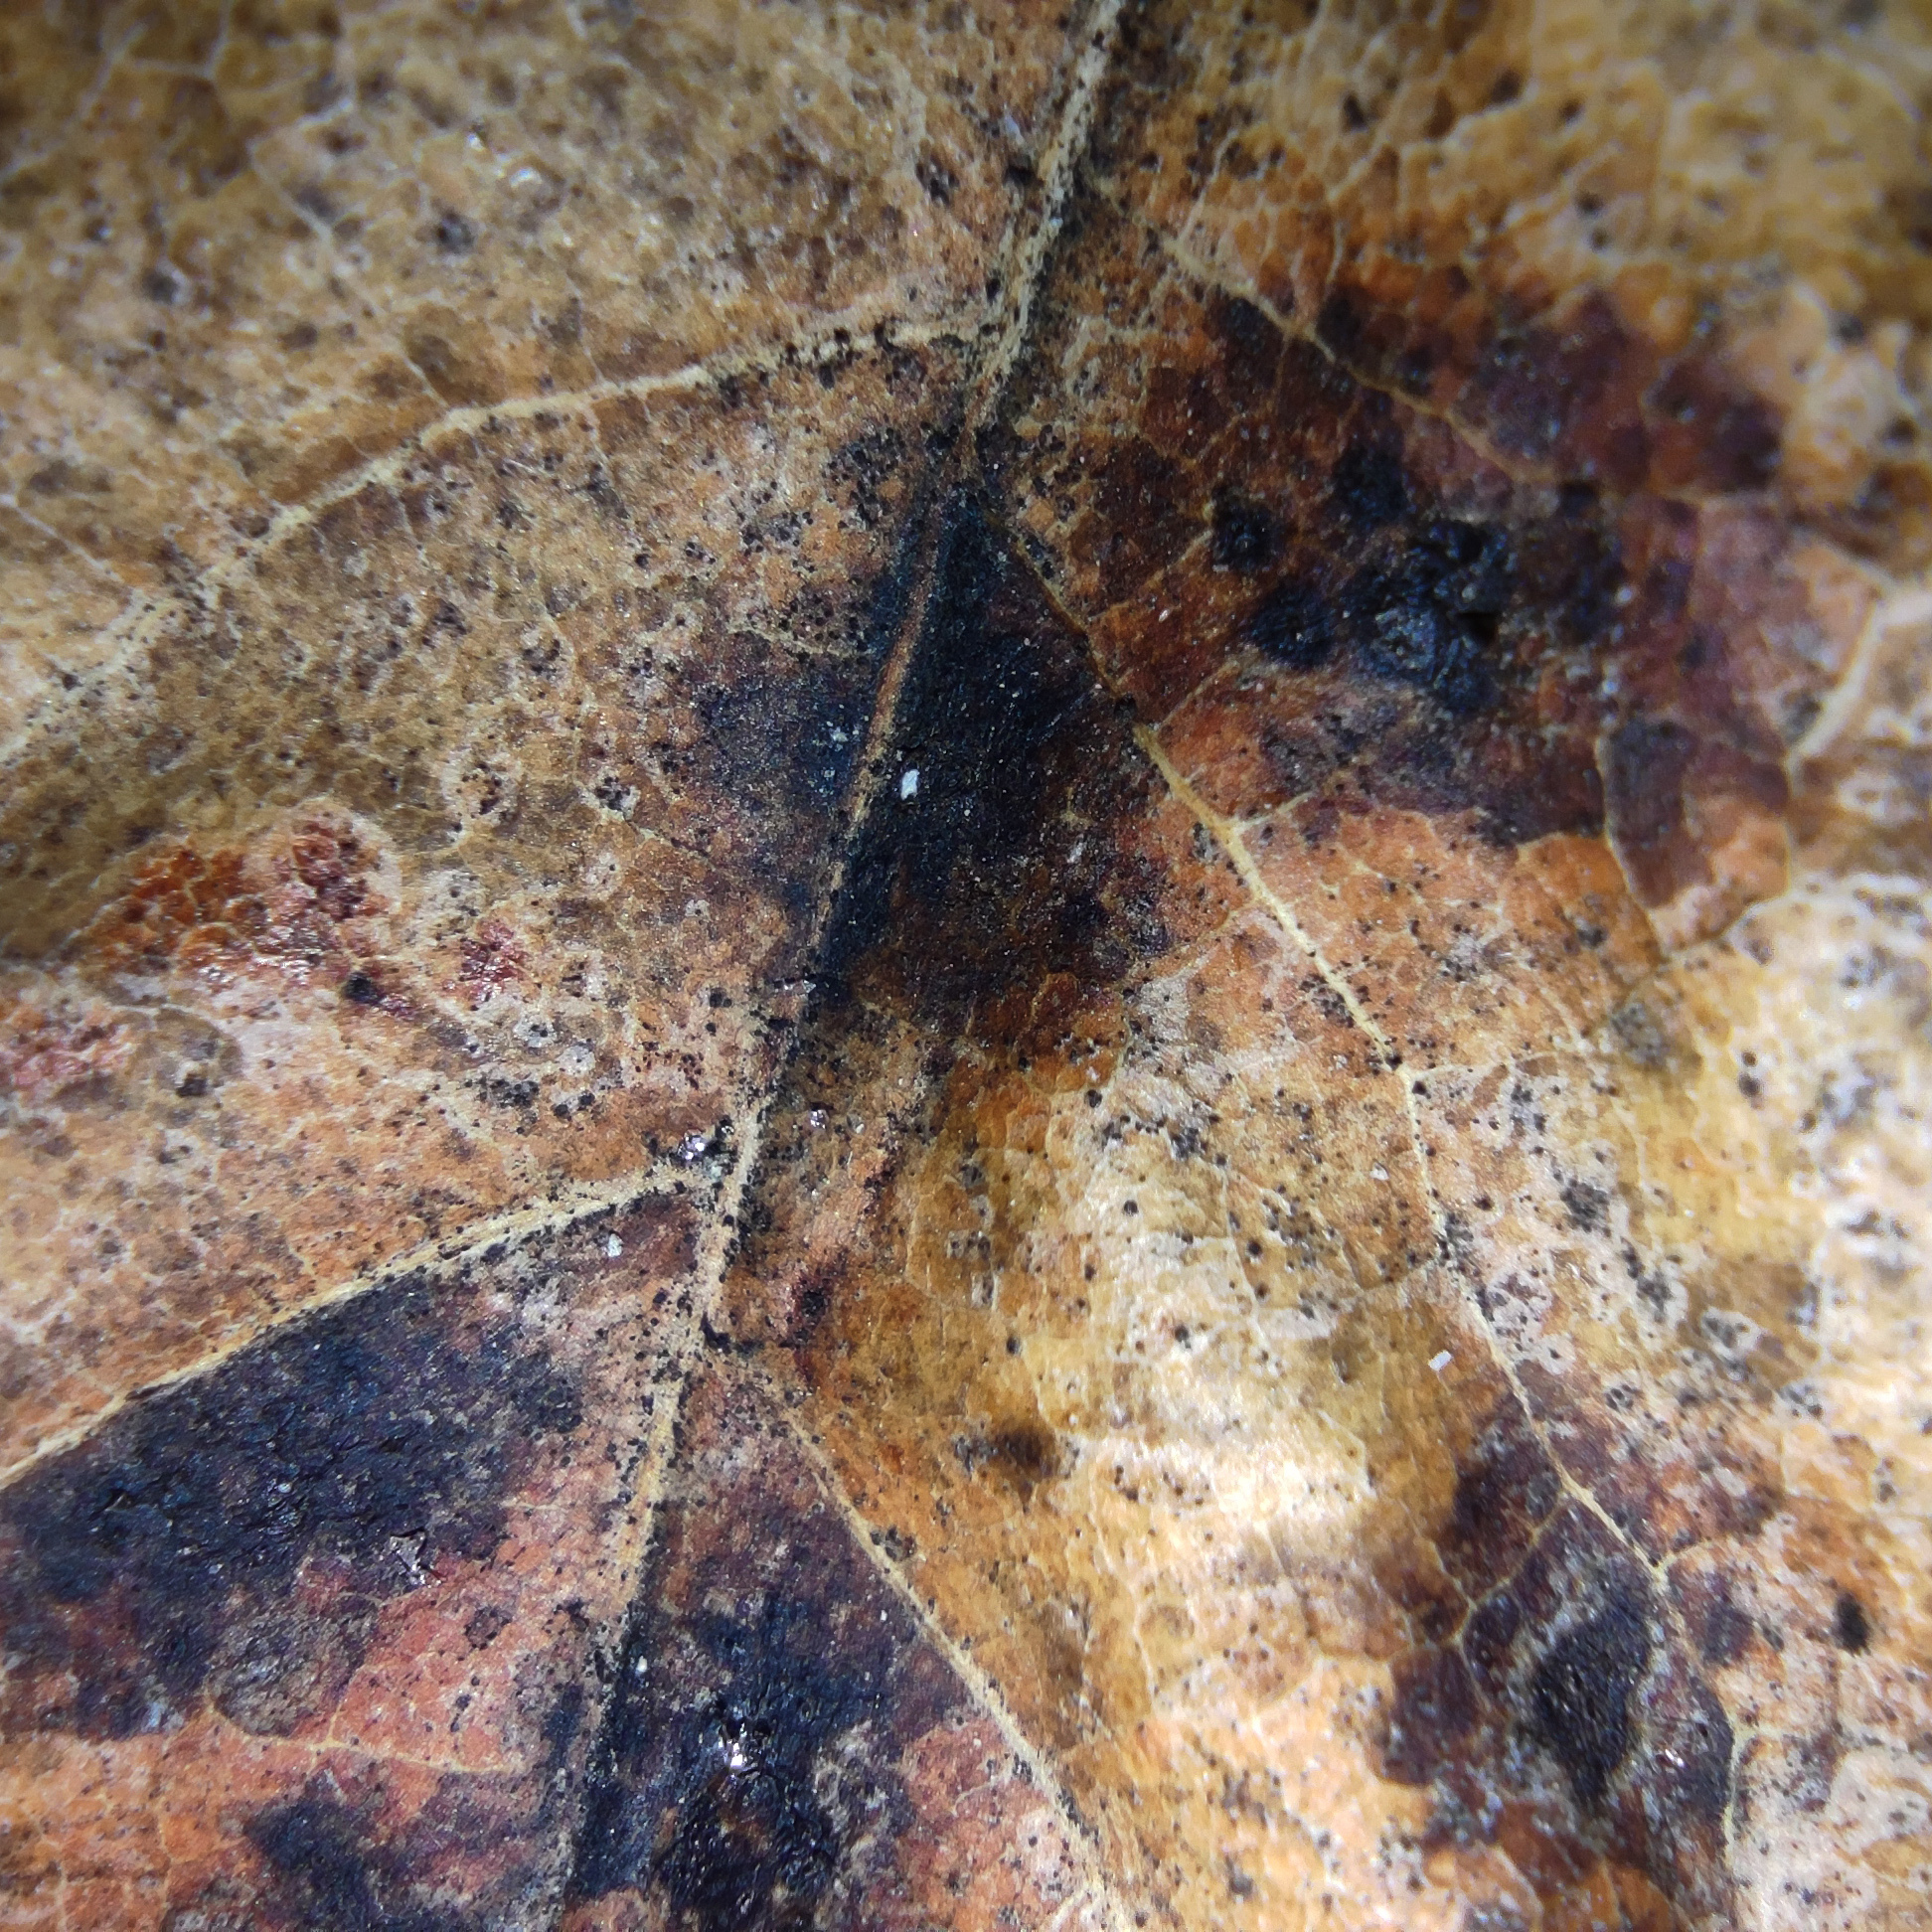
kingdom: Fungi
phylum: Ascomycota
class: Leotiomycetes
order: Rhytismatales
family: Rhytismataceae
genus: Rhytisma
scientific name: Rhytisma acerinum
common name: European tar spot
